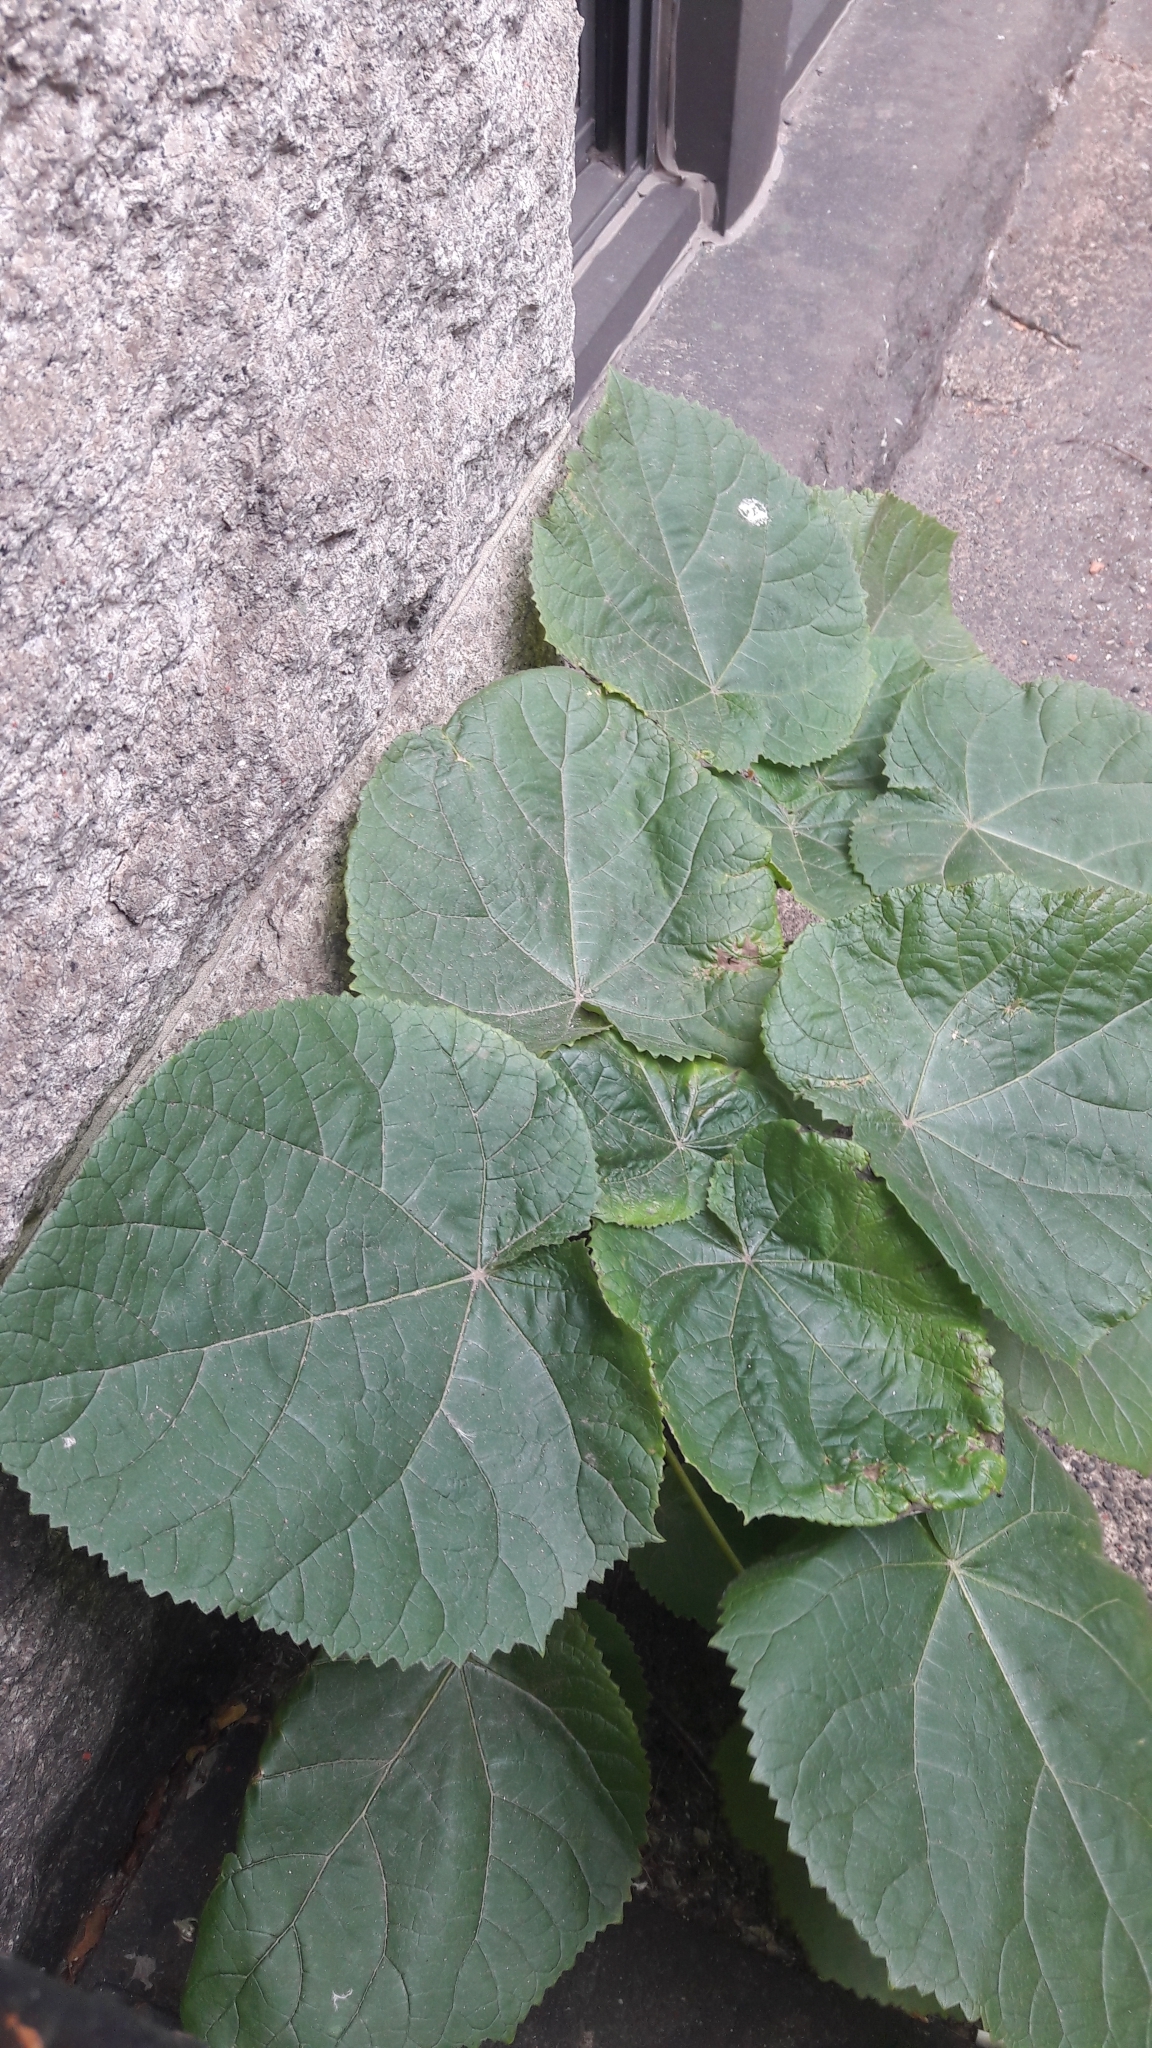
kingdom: Plantae
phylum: Tracheophyta
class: Magnoliopsida
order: Lamiales
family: Paulowniaceae
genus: Paulownia
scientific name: Paulownia tomentosa
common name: Foxglove-tree
